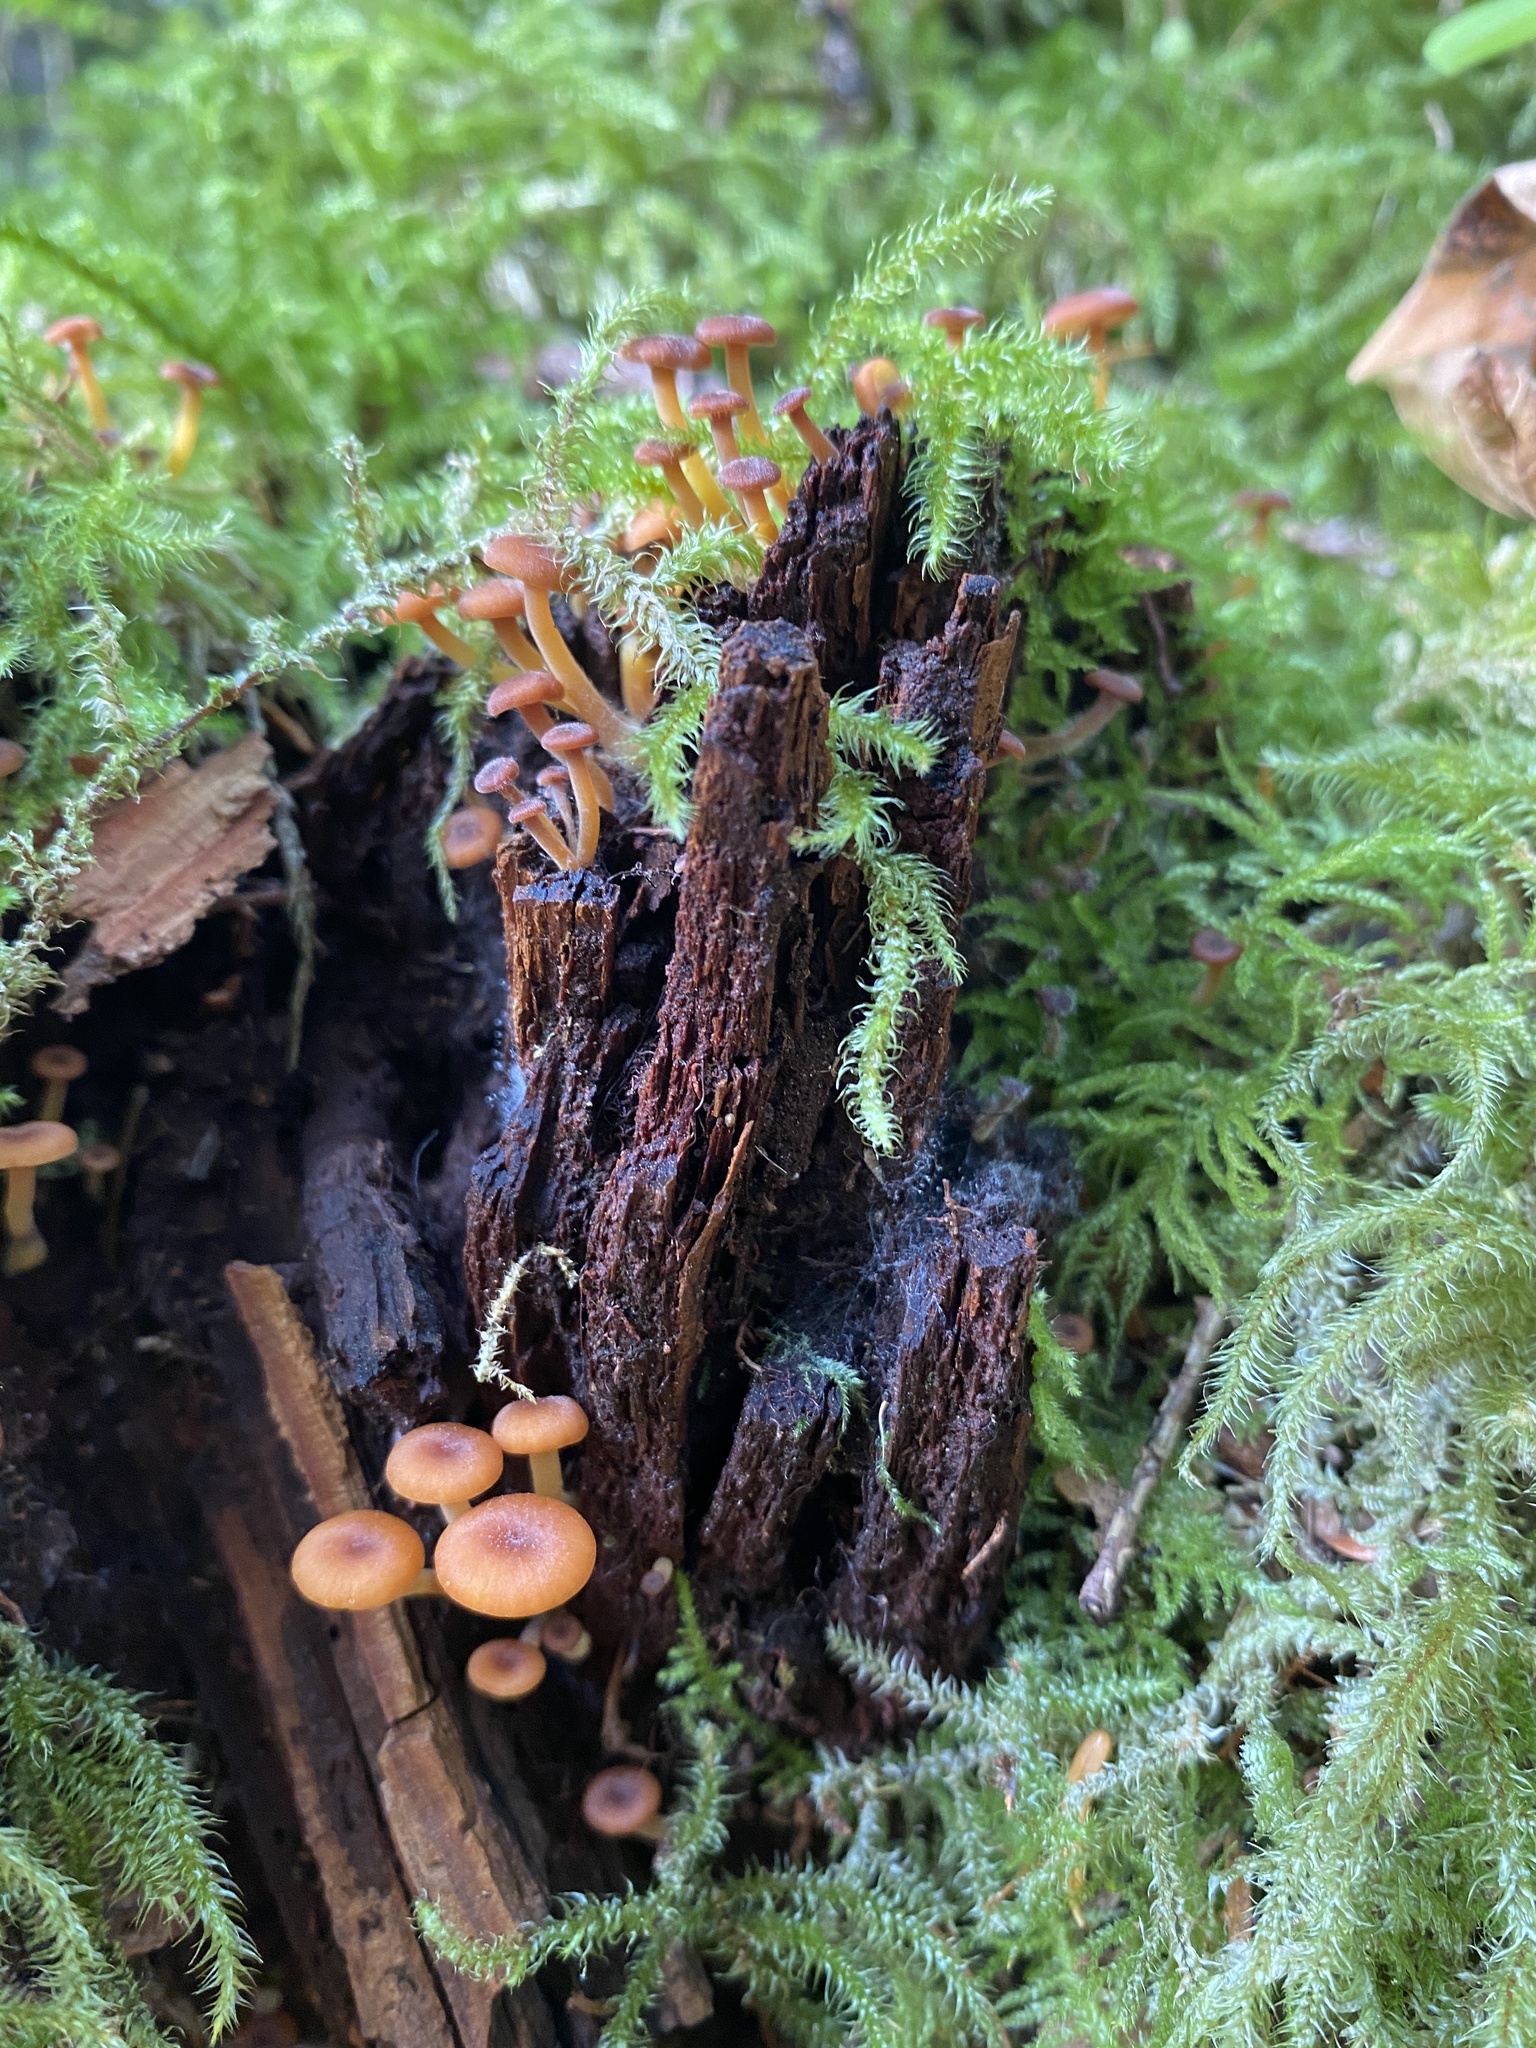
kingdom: Fungi
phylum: Basidiomycota
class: Agaricomycetes
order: Agaricales
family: Mycenaceae
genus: Xeromphalina
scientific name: Xeromphalina campanella
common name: Pinewood gingertail
